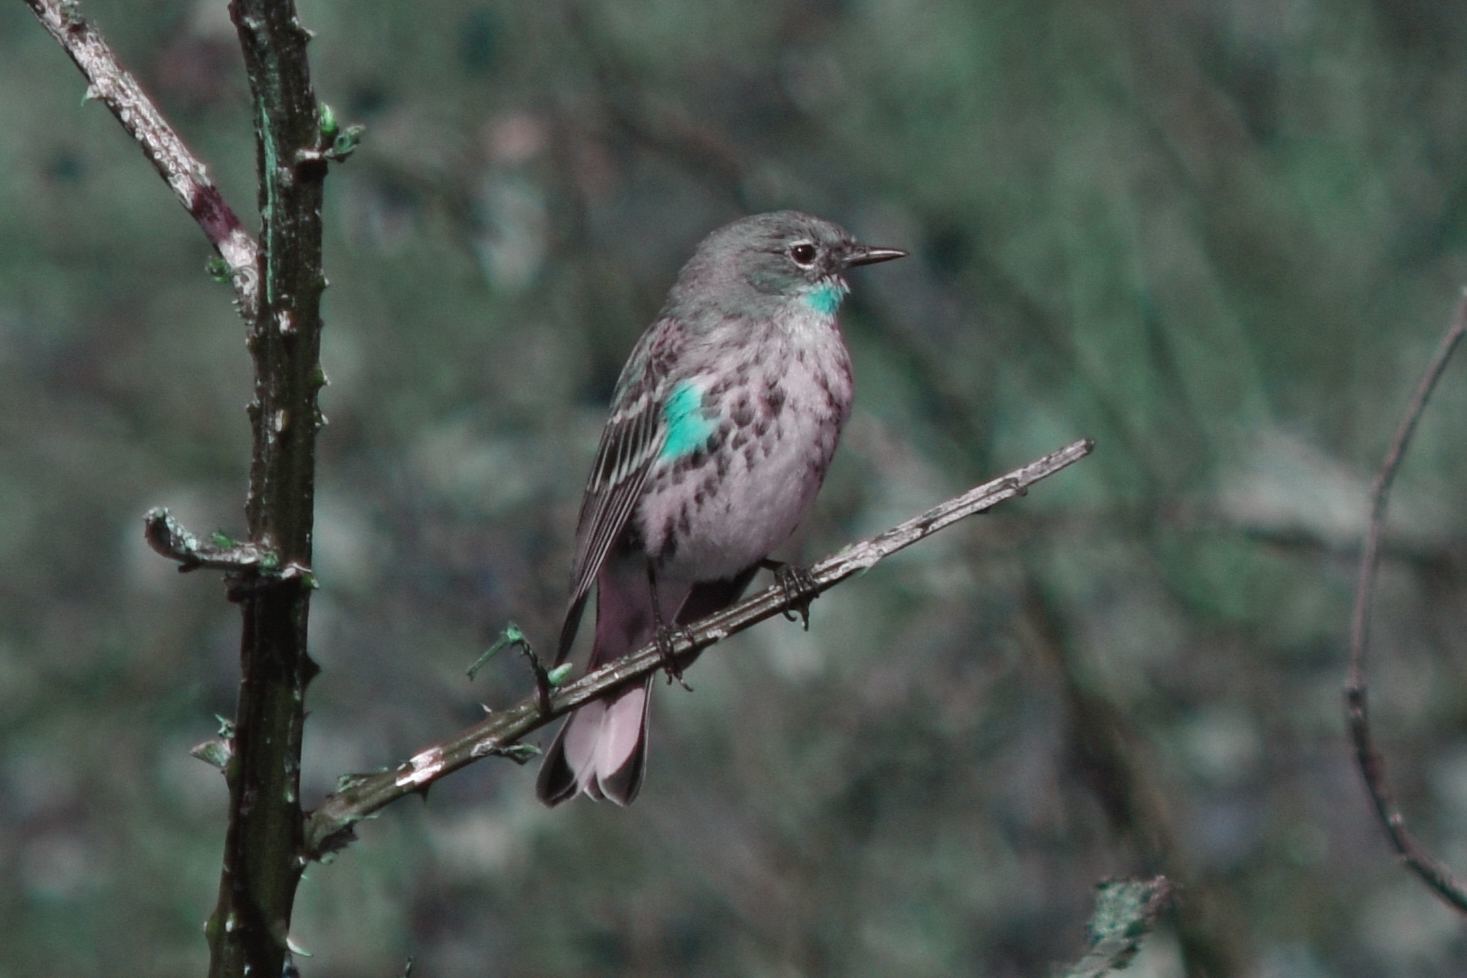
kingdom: Animalia
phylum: Chordata
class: Aves
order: Passeriformes
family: Parulidae
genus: Setophaga
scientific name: Setophaga coronata
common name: Myrtle warbler
